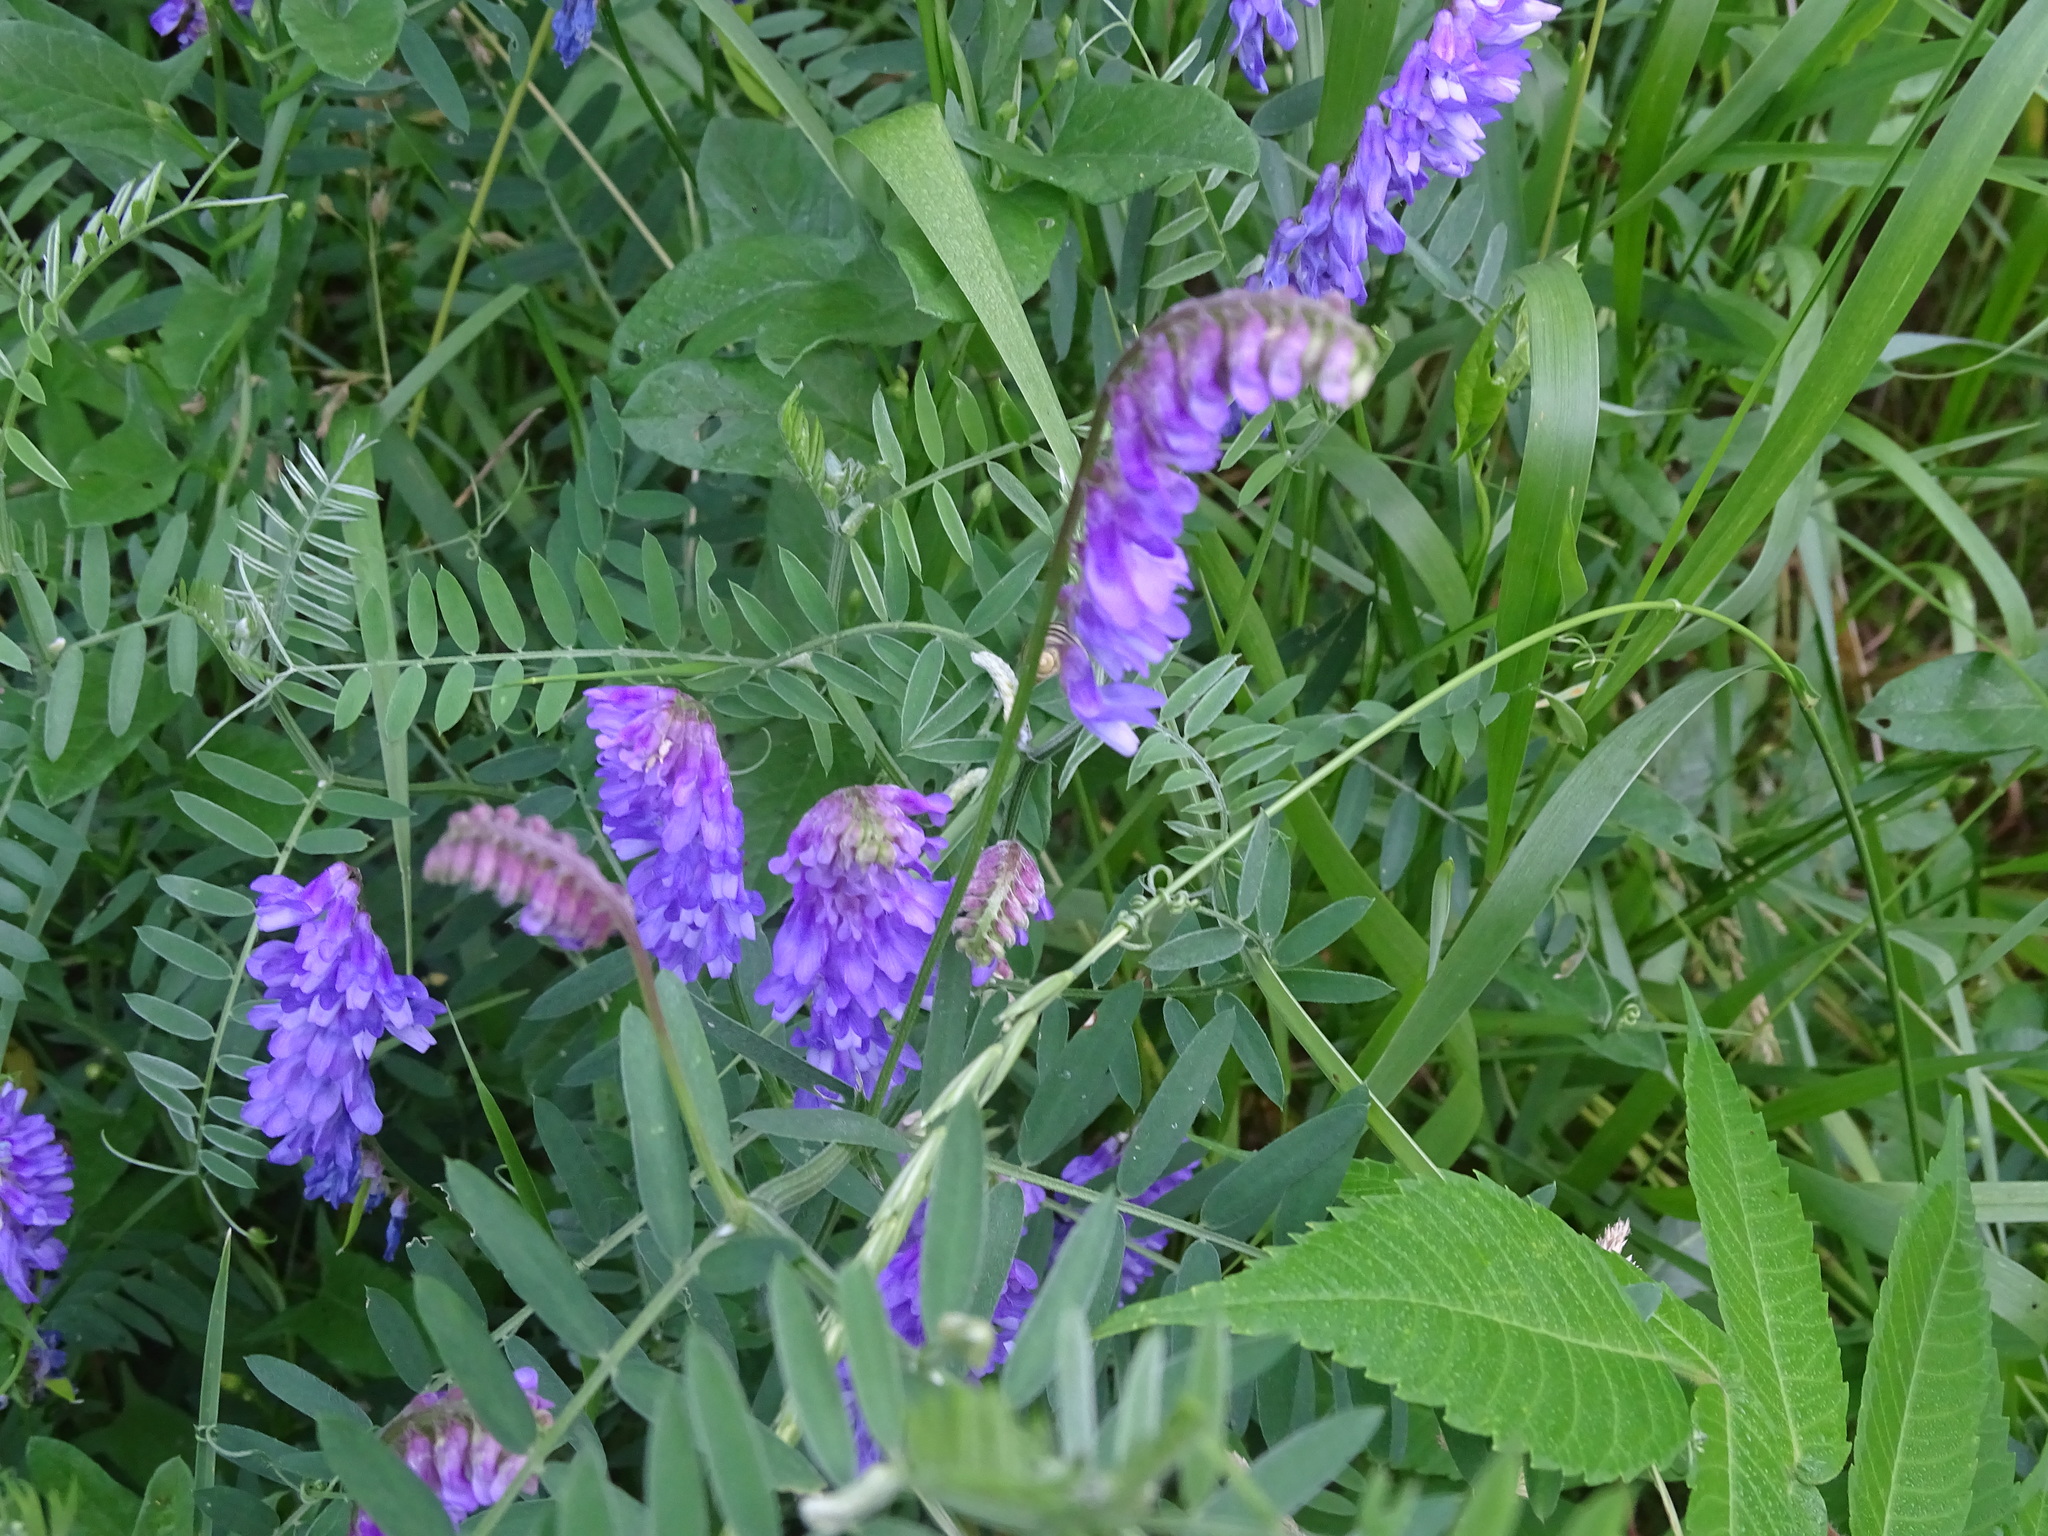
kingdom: Plantae
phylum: Tracheophyta
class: Magnoliopsida
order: Fabales
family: Fabaceae
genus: Vicia
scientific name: Vicia cracca
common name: Bird vetch
